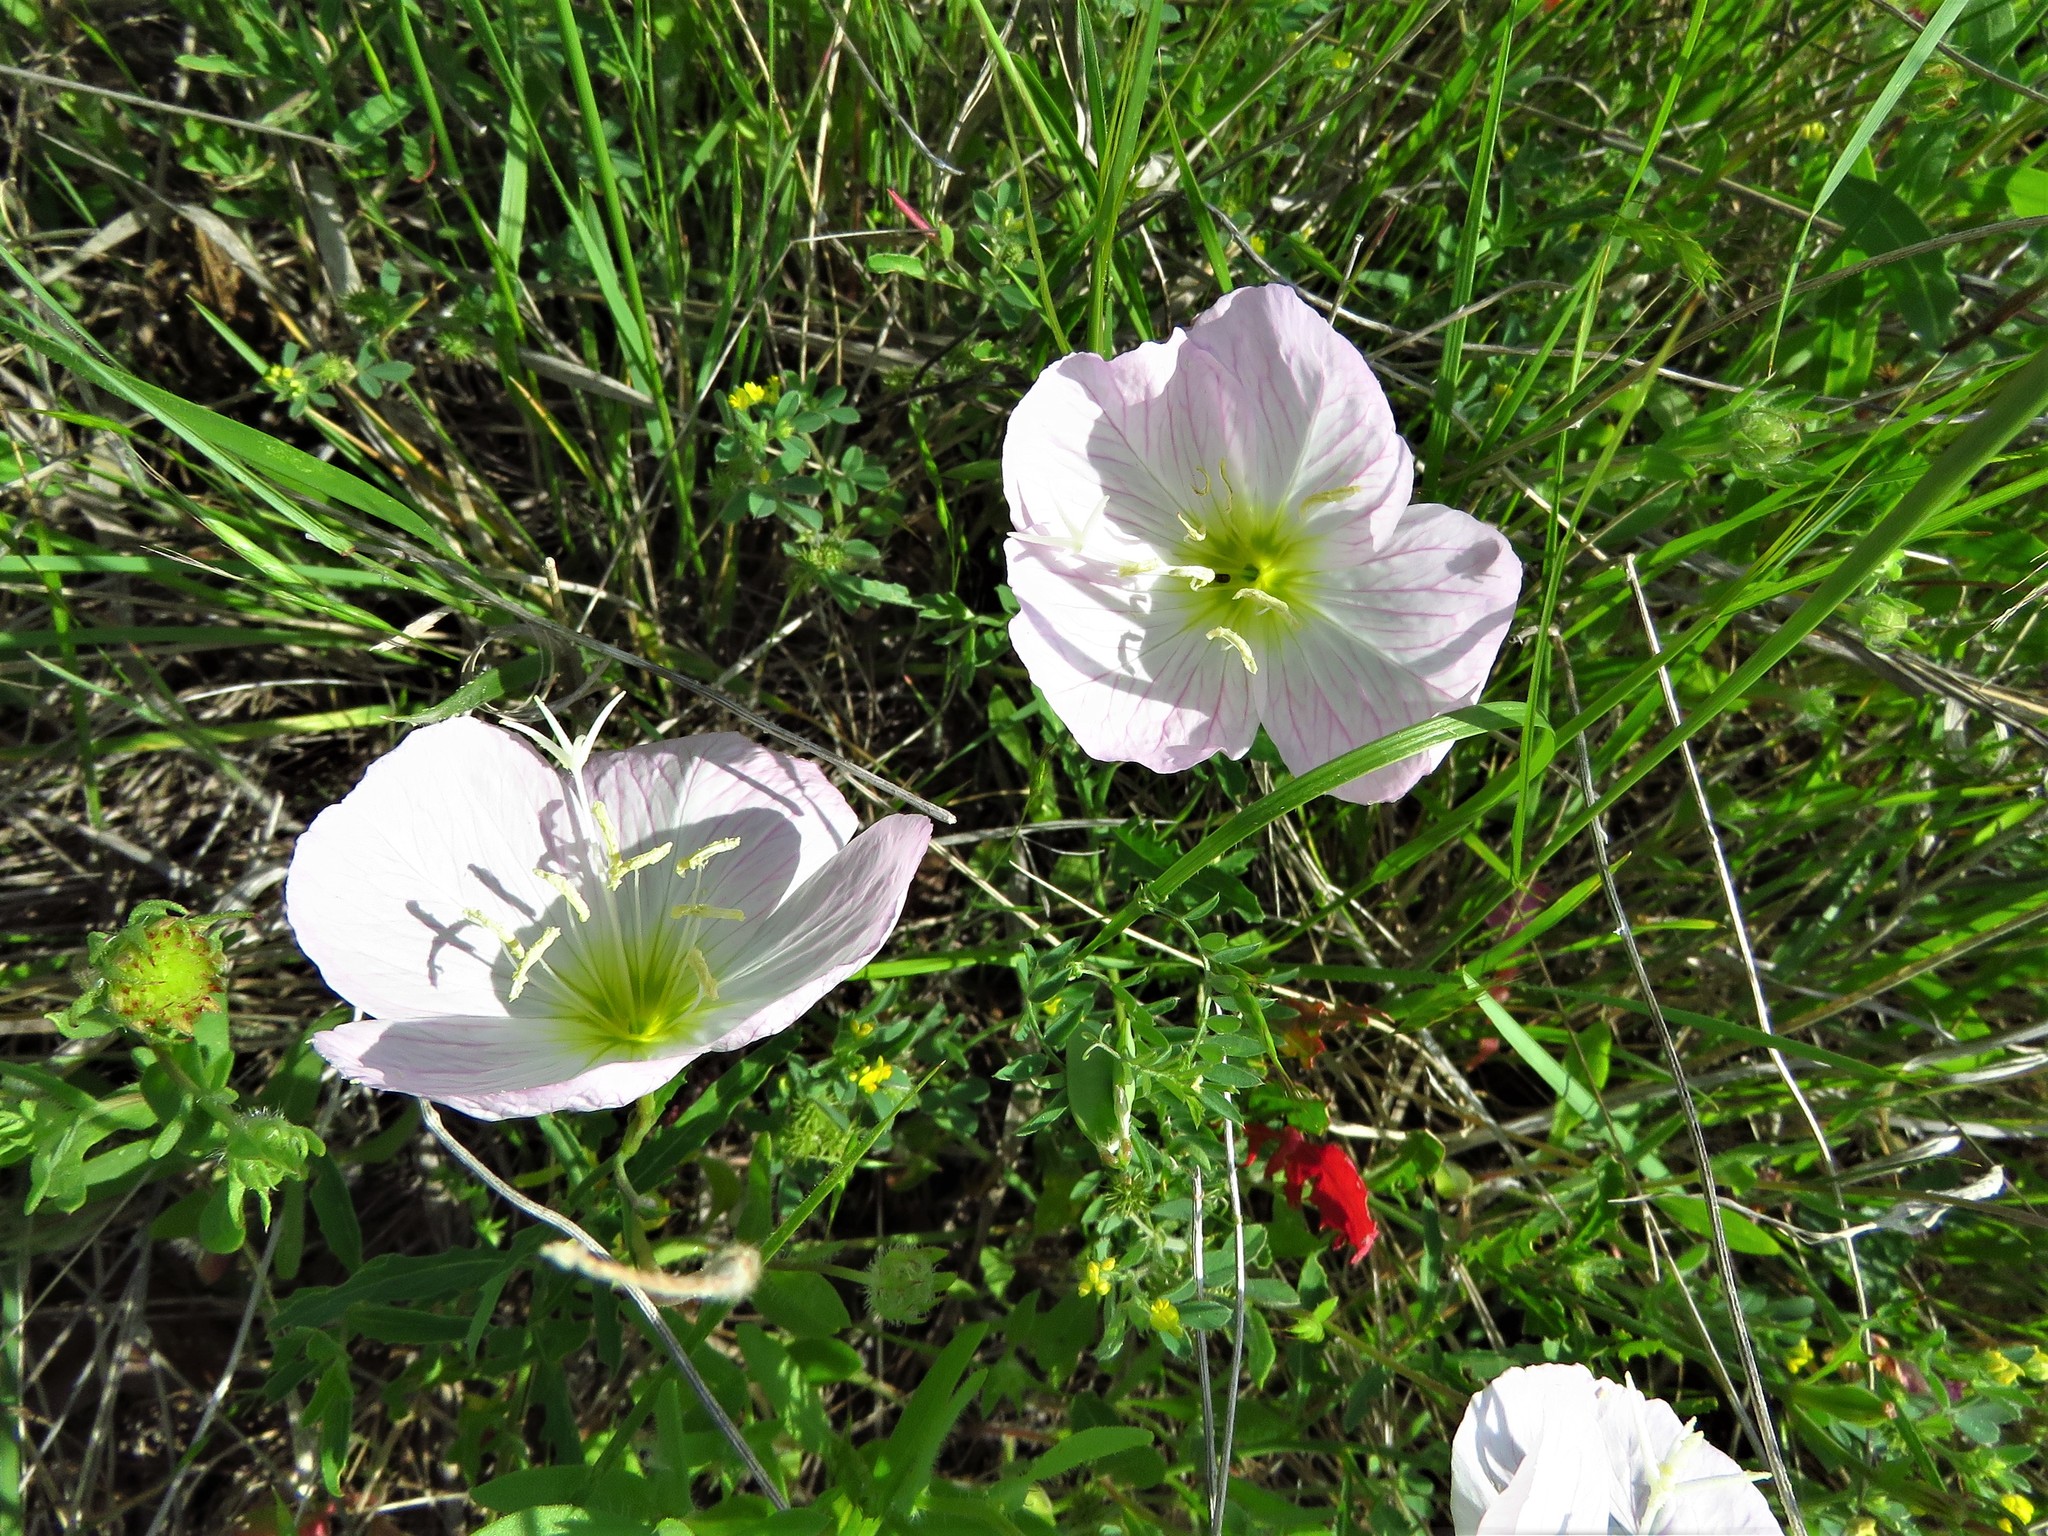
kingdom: Plantae
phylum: Tracheophyta
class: Magnoliopsida
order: Myrtales
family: Onagraceae
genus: Oenothera
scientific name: Oenothera speciosa
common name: White evening-primrose
